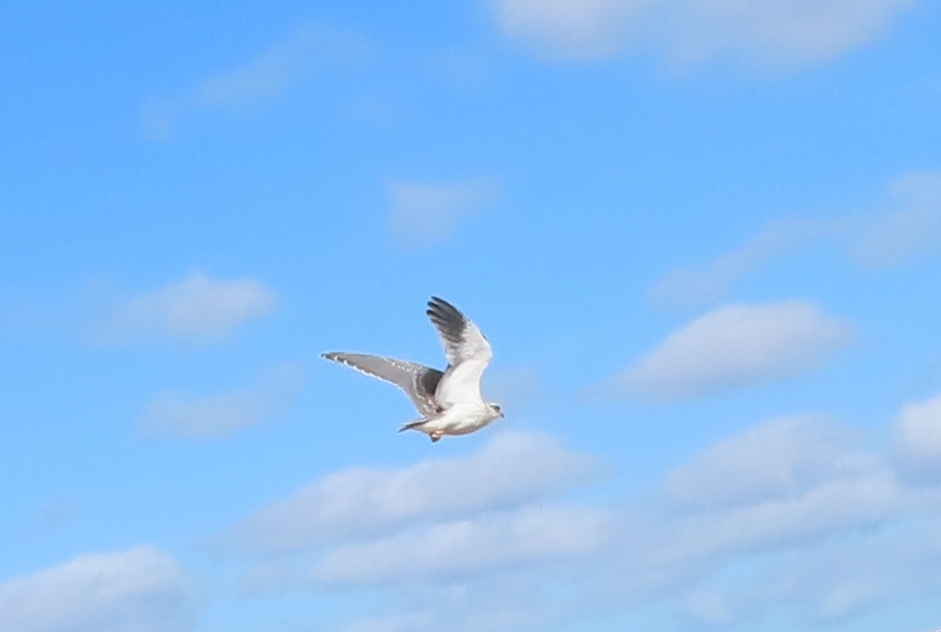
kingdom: Animalia
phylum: Chordata
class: Aves
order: Accipitriformes
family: Accipitridae
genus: Elanus
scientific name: Elanus caeruleus
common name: Black-winged kite
